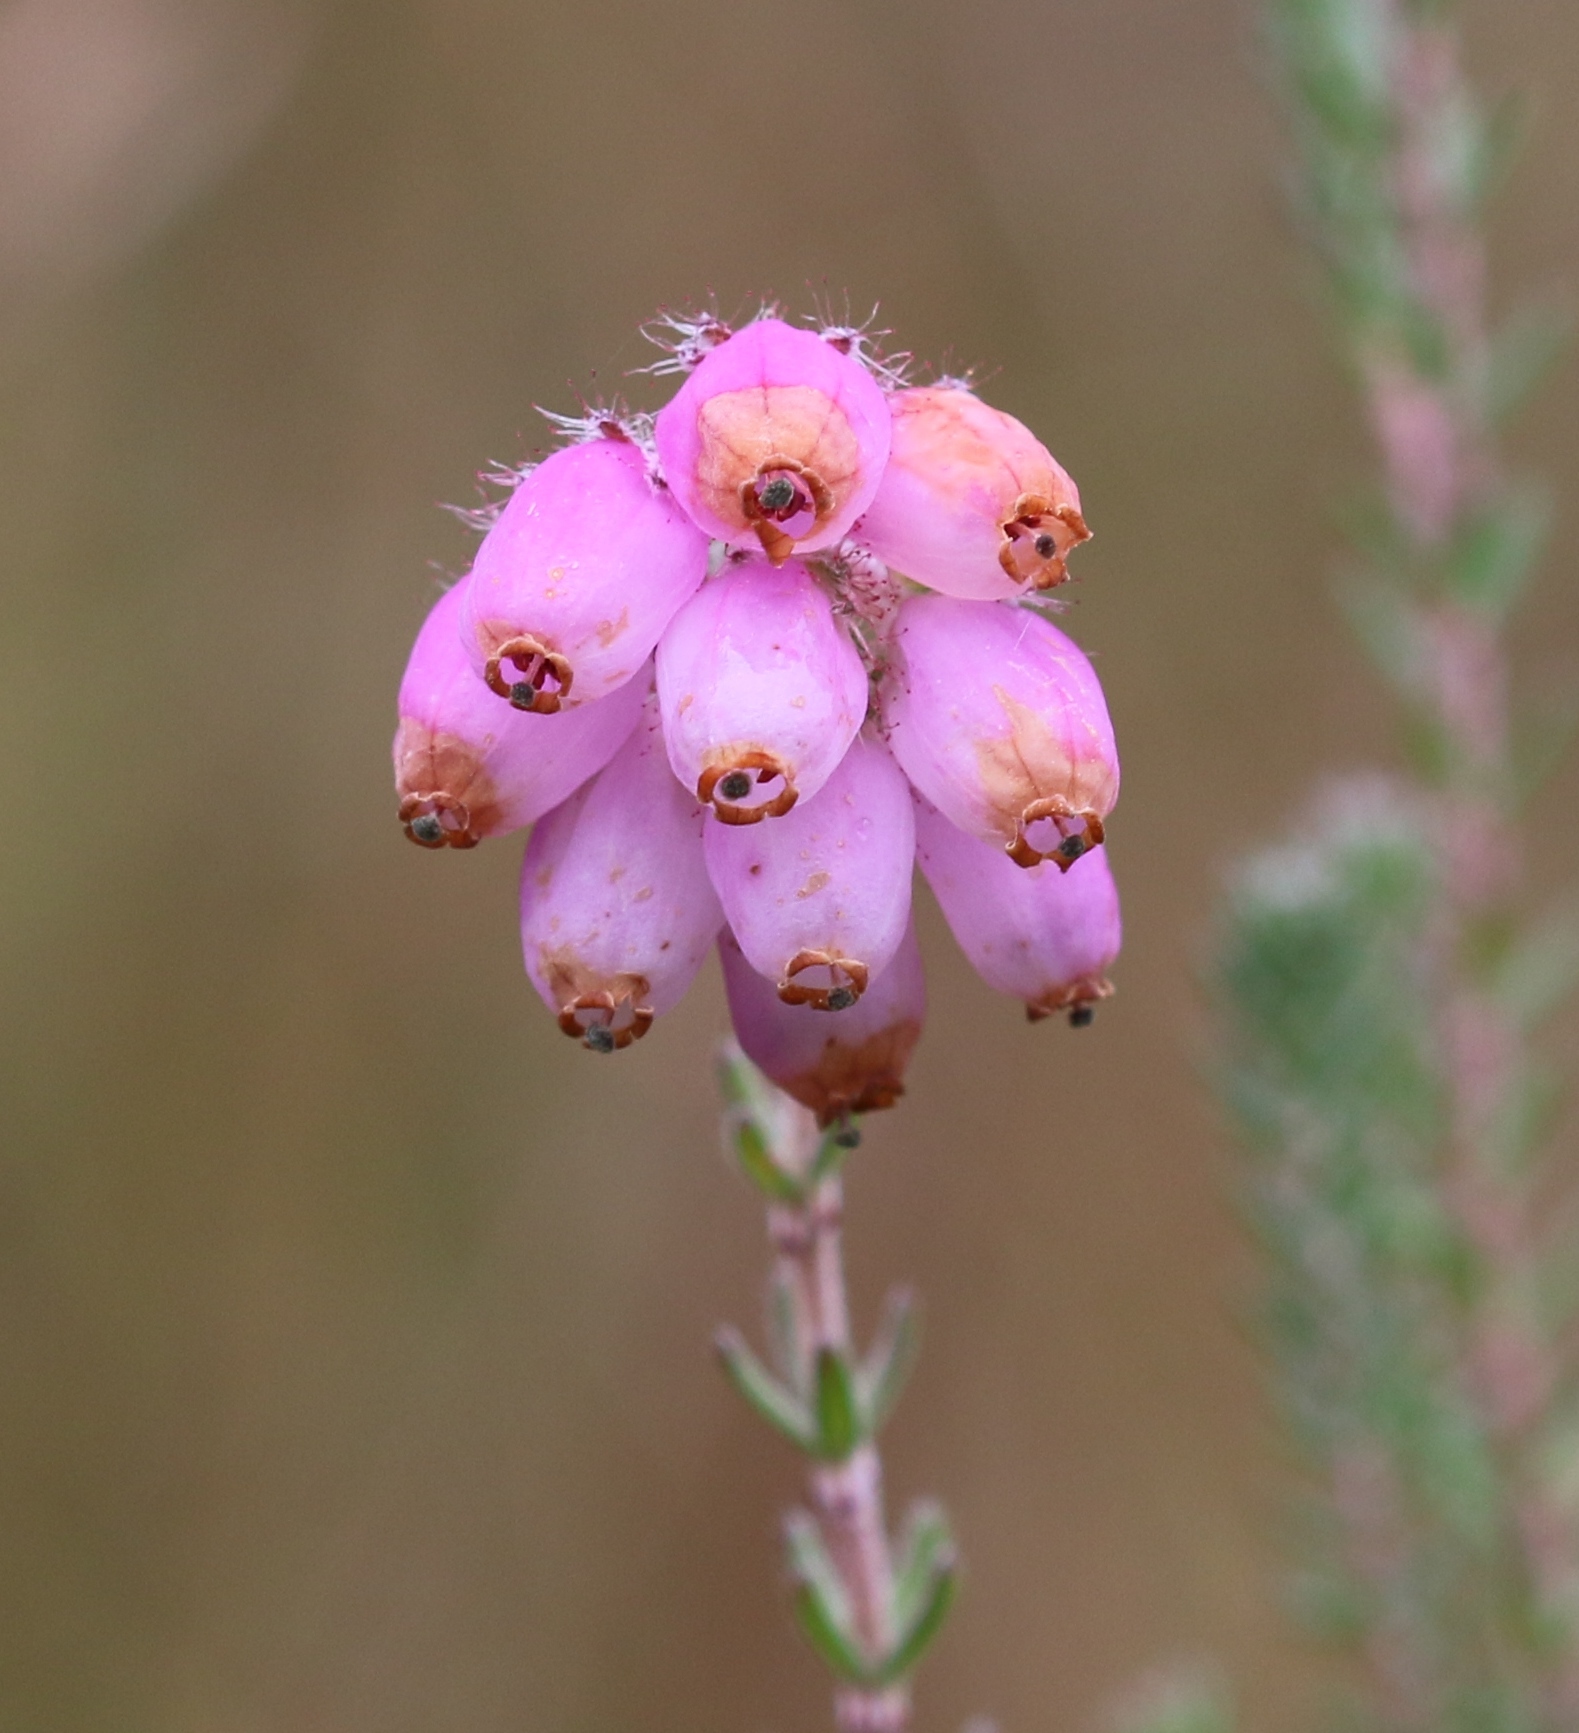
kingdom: Plantae
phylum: Tracheophyta
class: Magnoliopsida
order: Ericales
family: Ericaceae
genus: Erica
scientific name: Erica tetralix
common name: Cross-leaved heath
